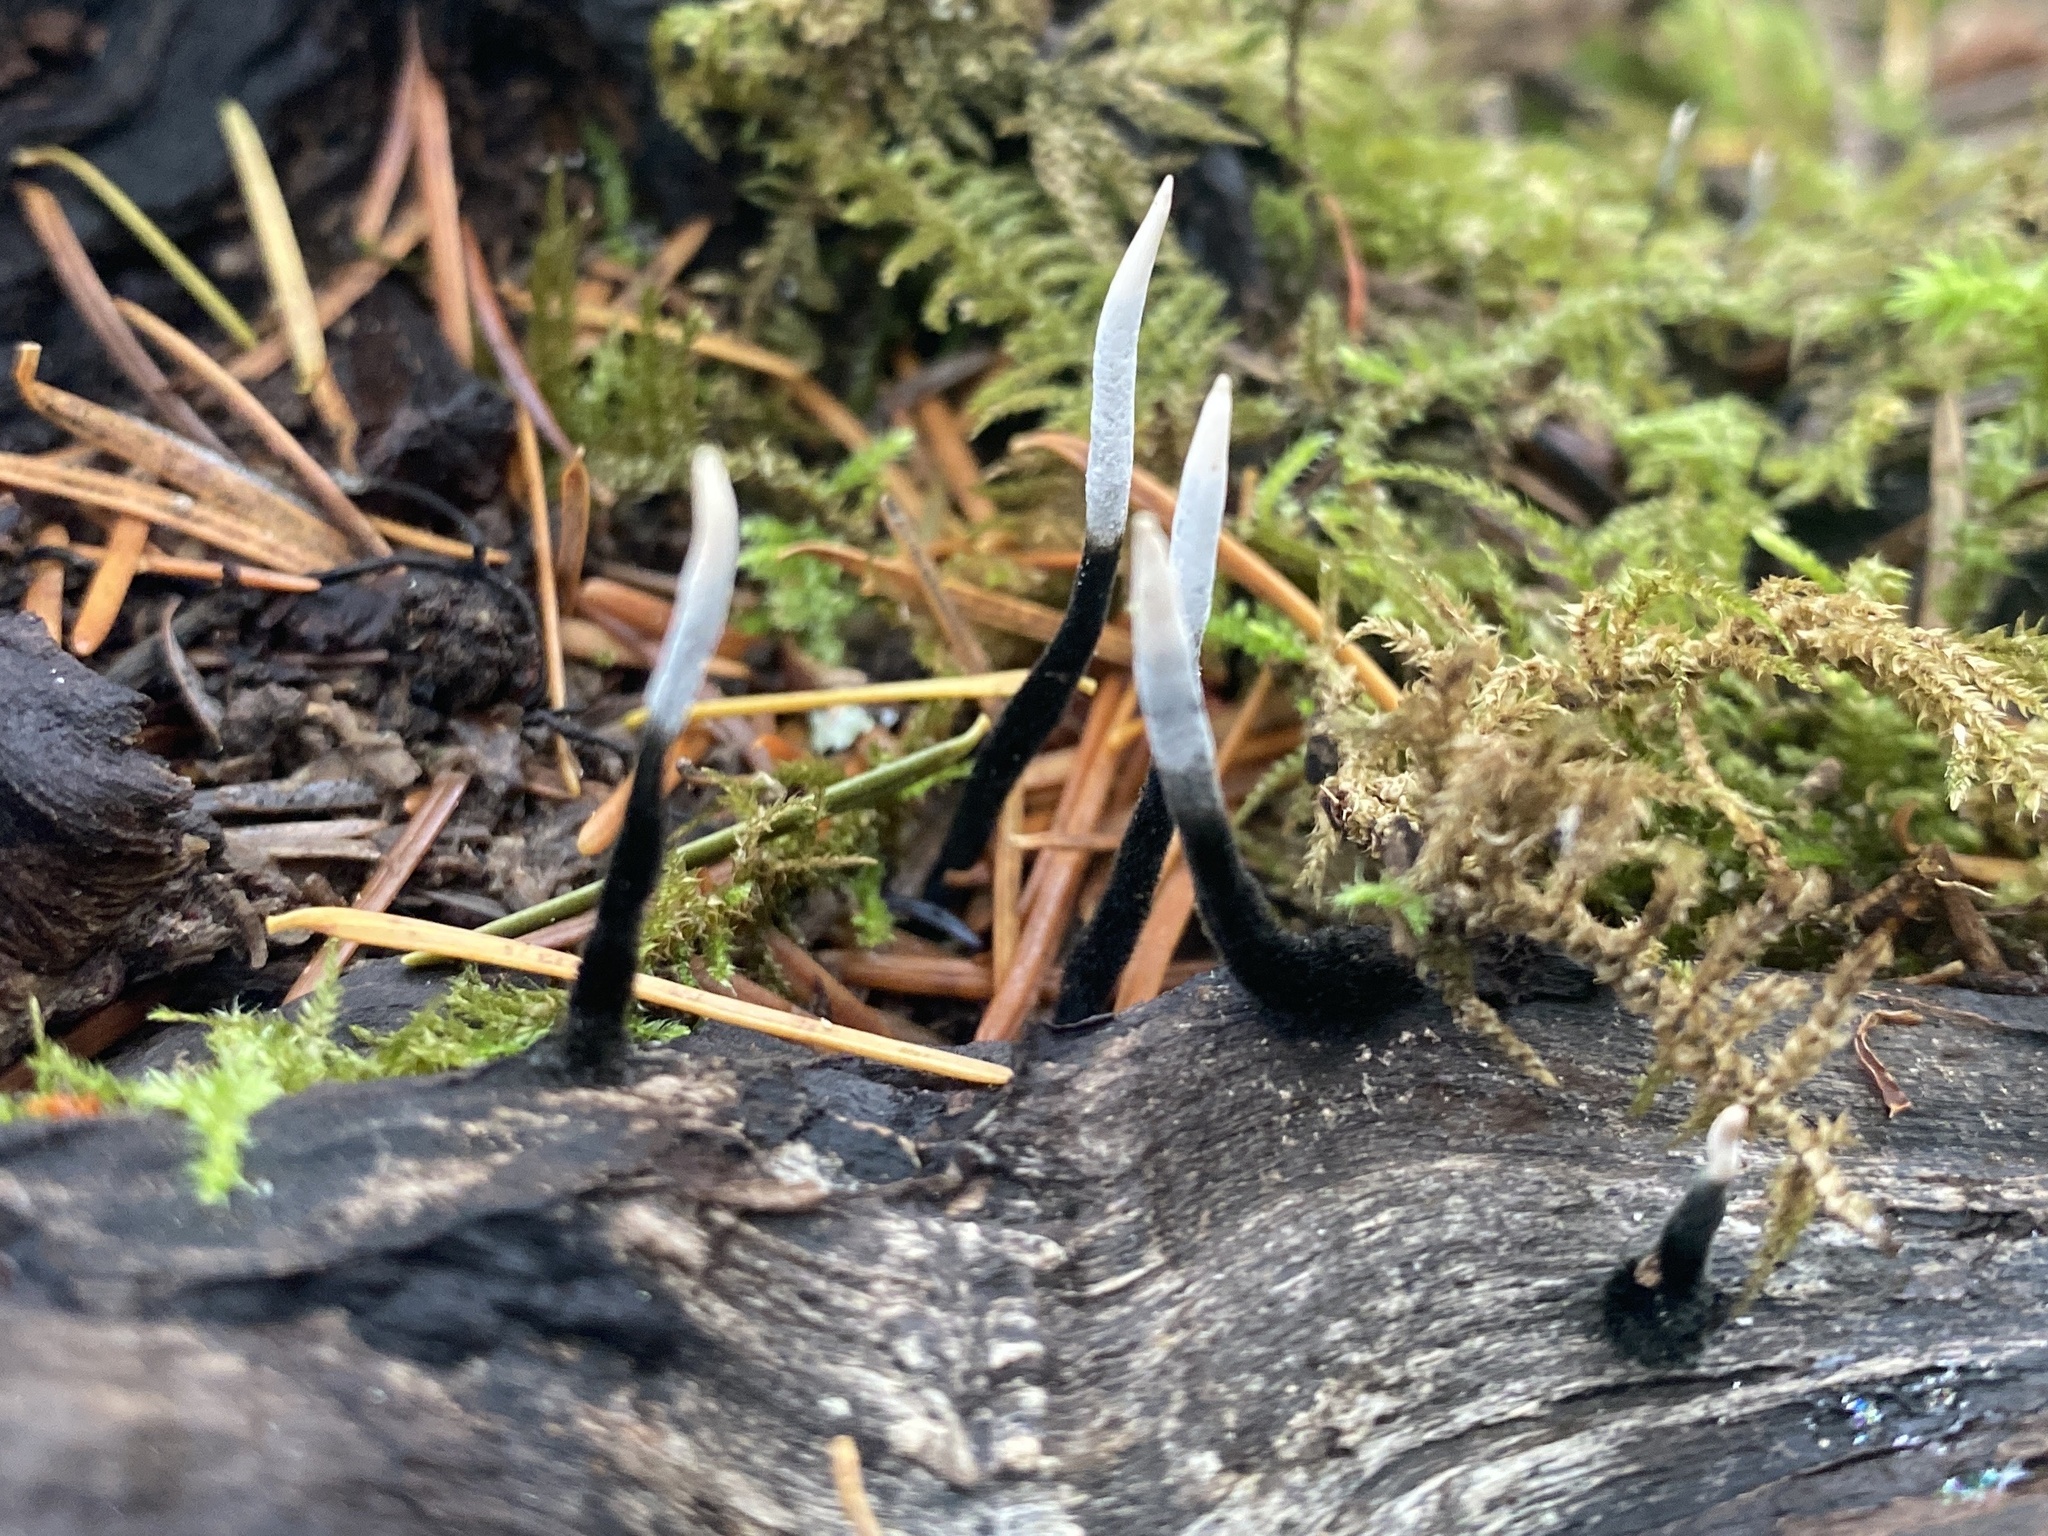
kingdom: Fungi
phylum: Ascomycota
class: Sordariomycetes
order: Xylariales
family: Xylariaceae
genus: Xylaria
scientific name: Xylaria hypoxylon
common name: Candle-snuff fungus
